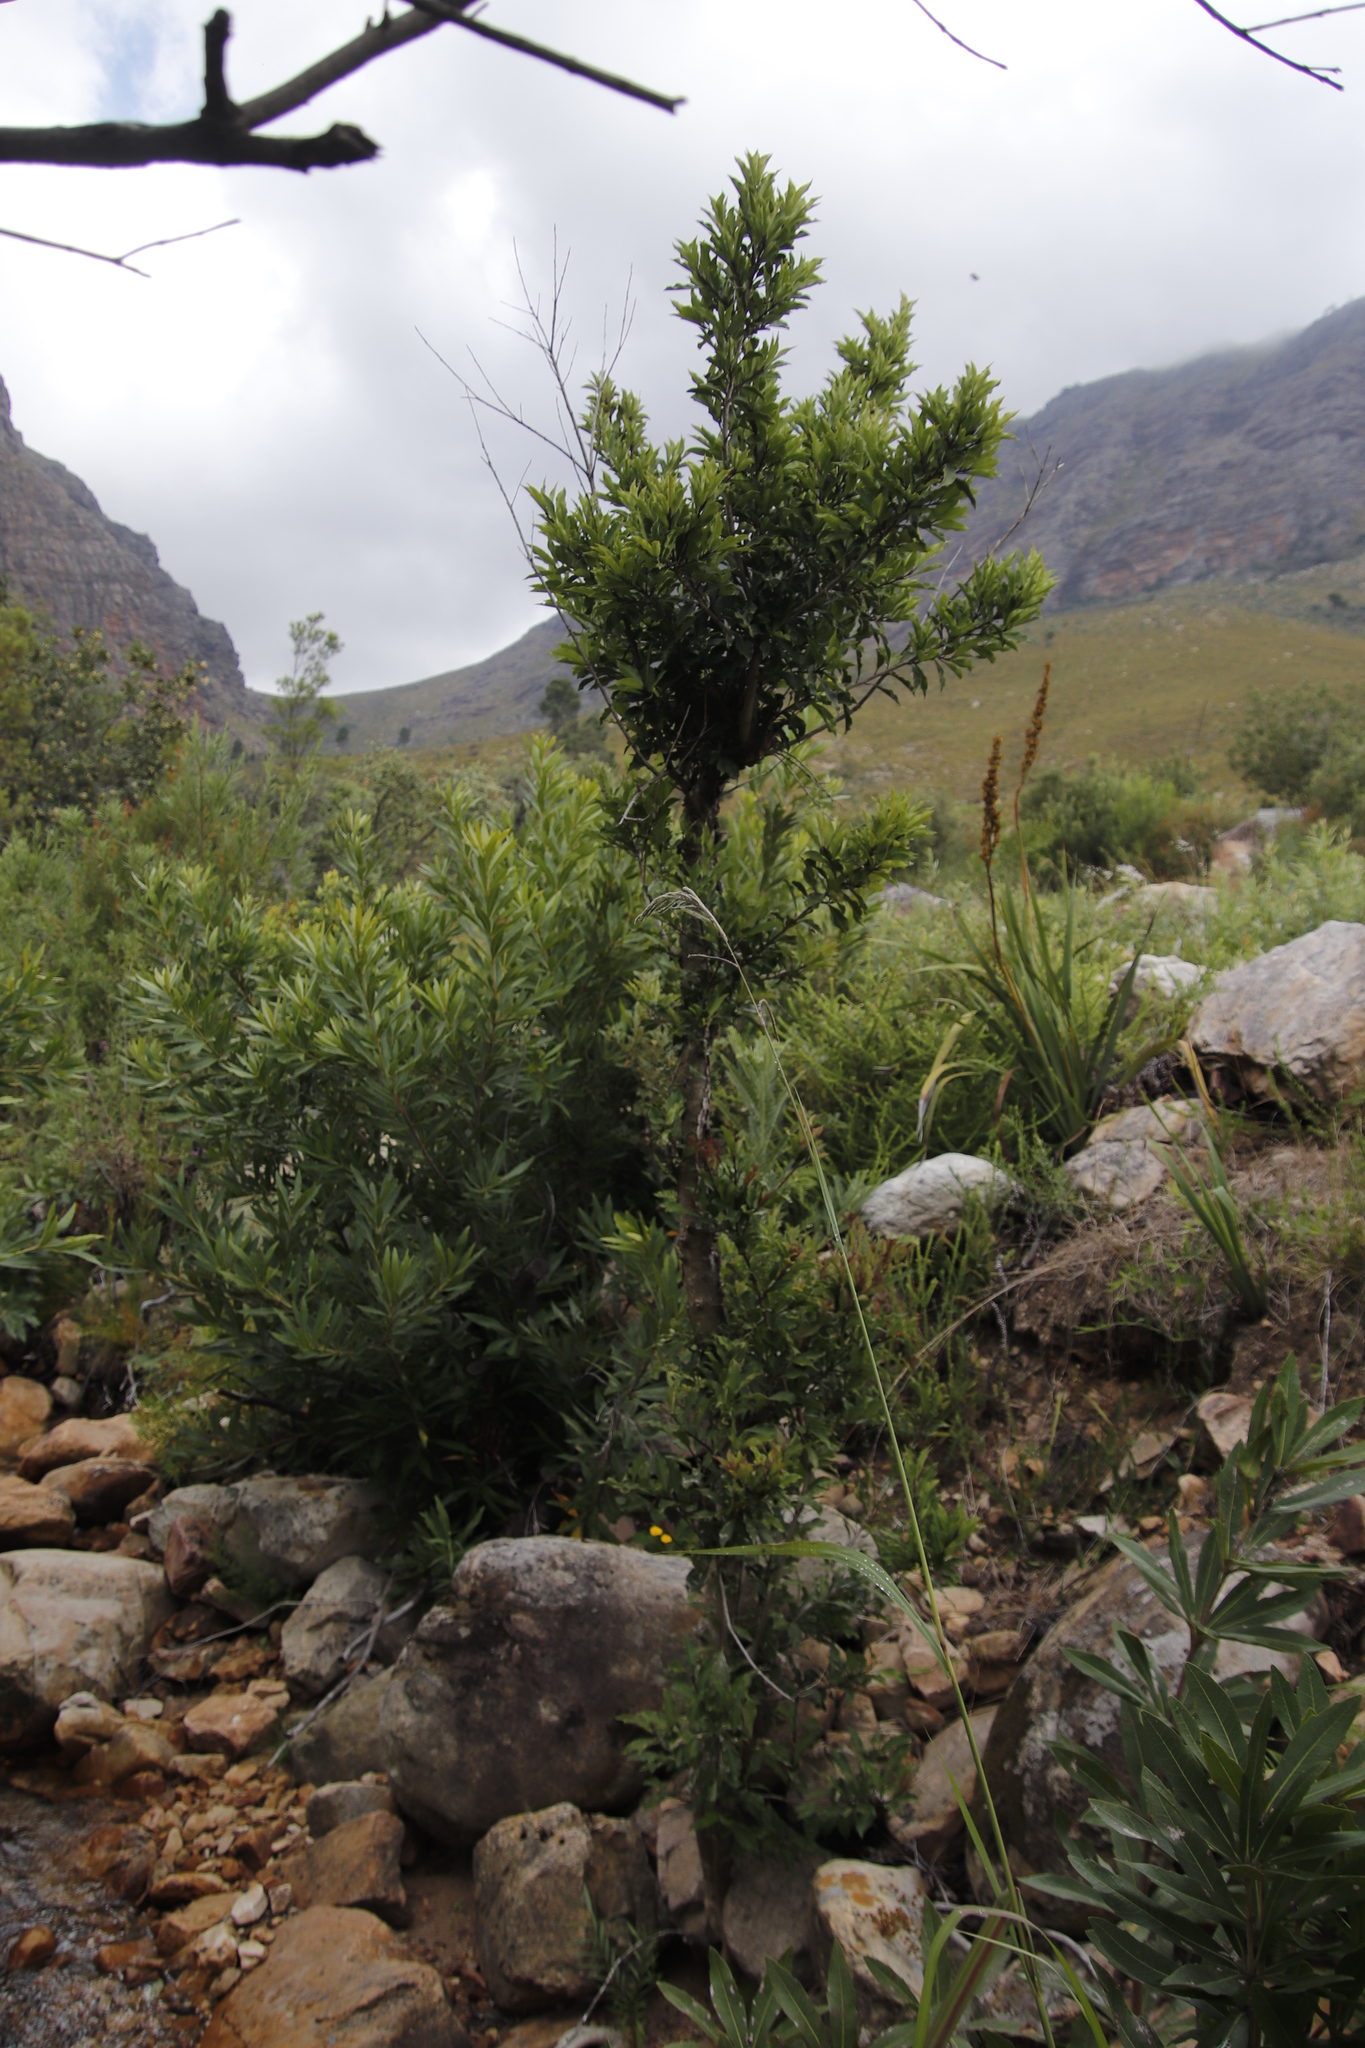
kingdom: Plantae
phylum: Tracheophyta
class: Magnoliopsida
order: Ericales
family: Primulaceae
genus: Myrsine
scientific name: Myrsine melanophloeos
